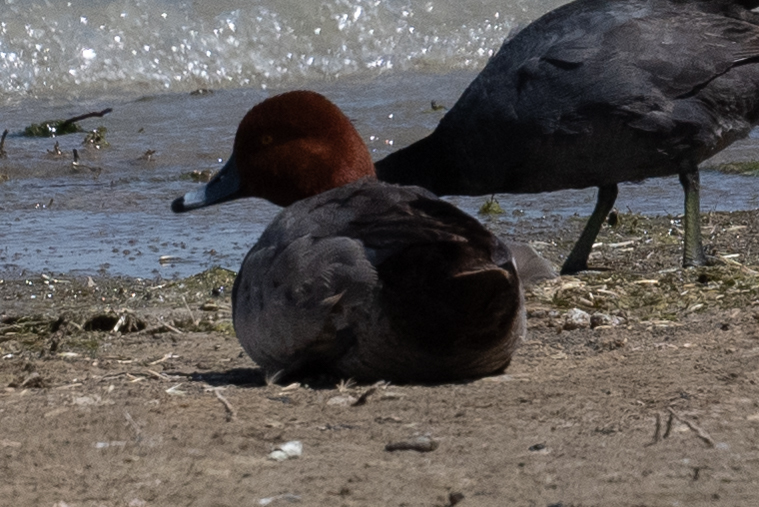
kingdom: Animalia
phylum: Chordata
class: Aves
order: Anseriformes
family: Anatidae
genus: Aythya
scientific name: Aythya americana
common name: Redhead
